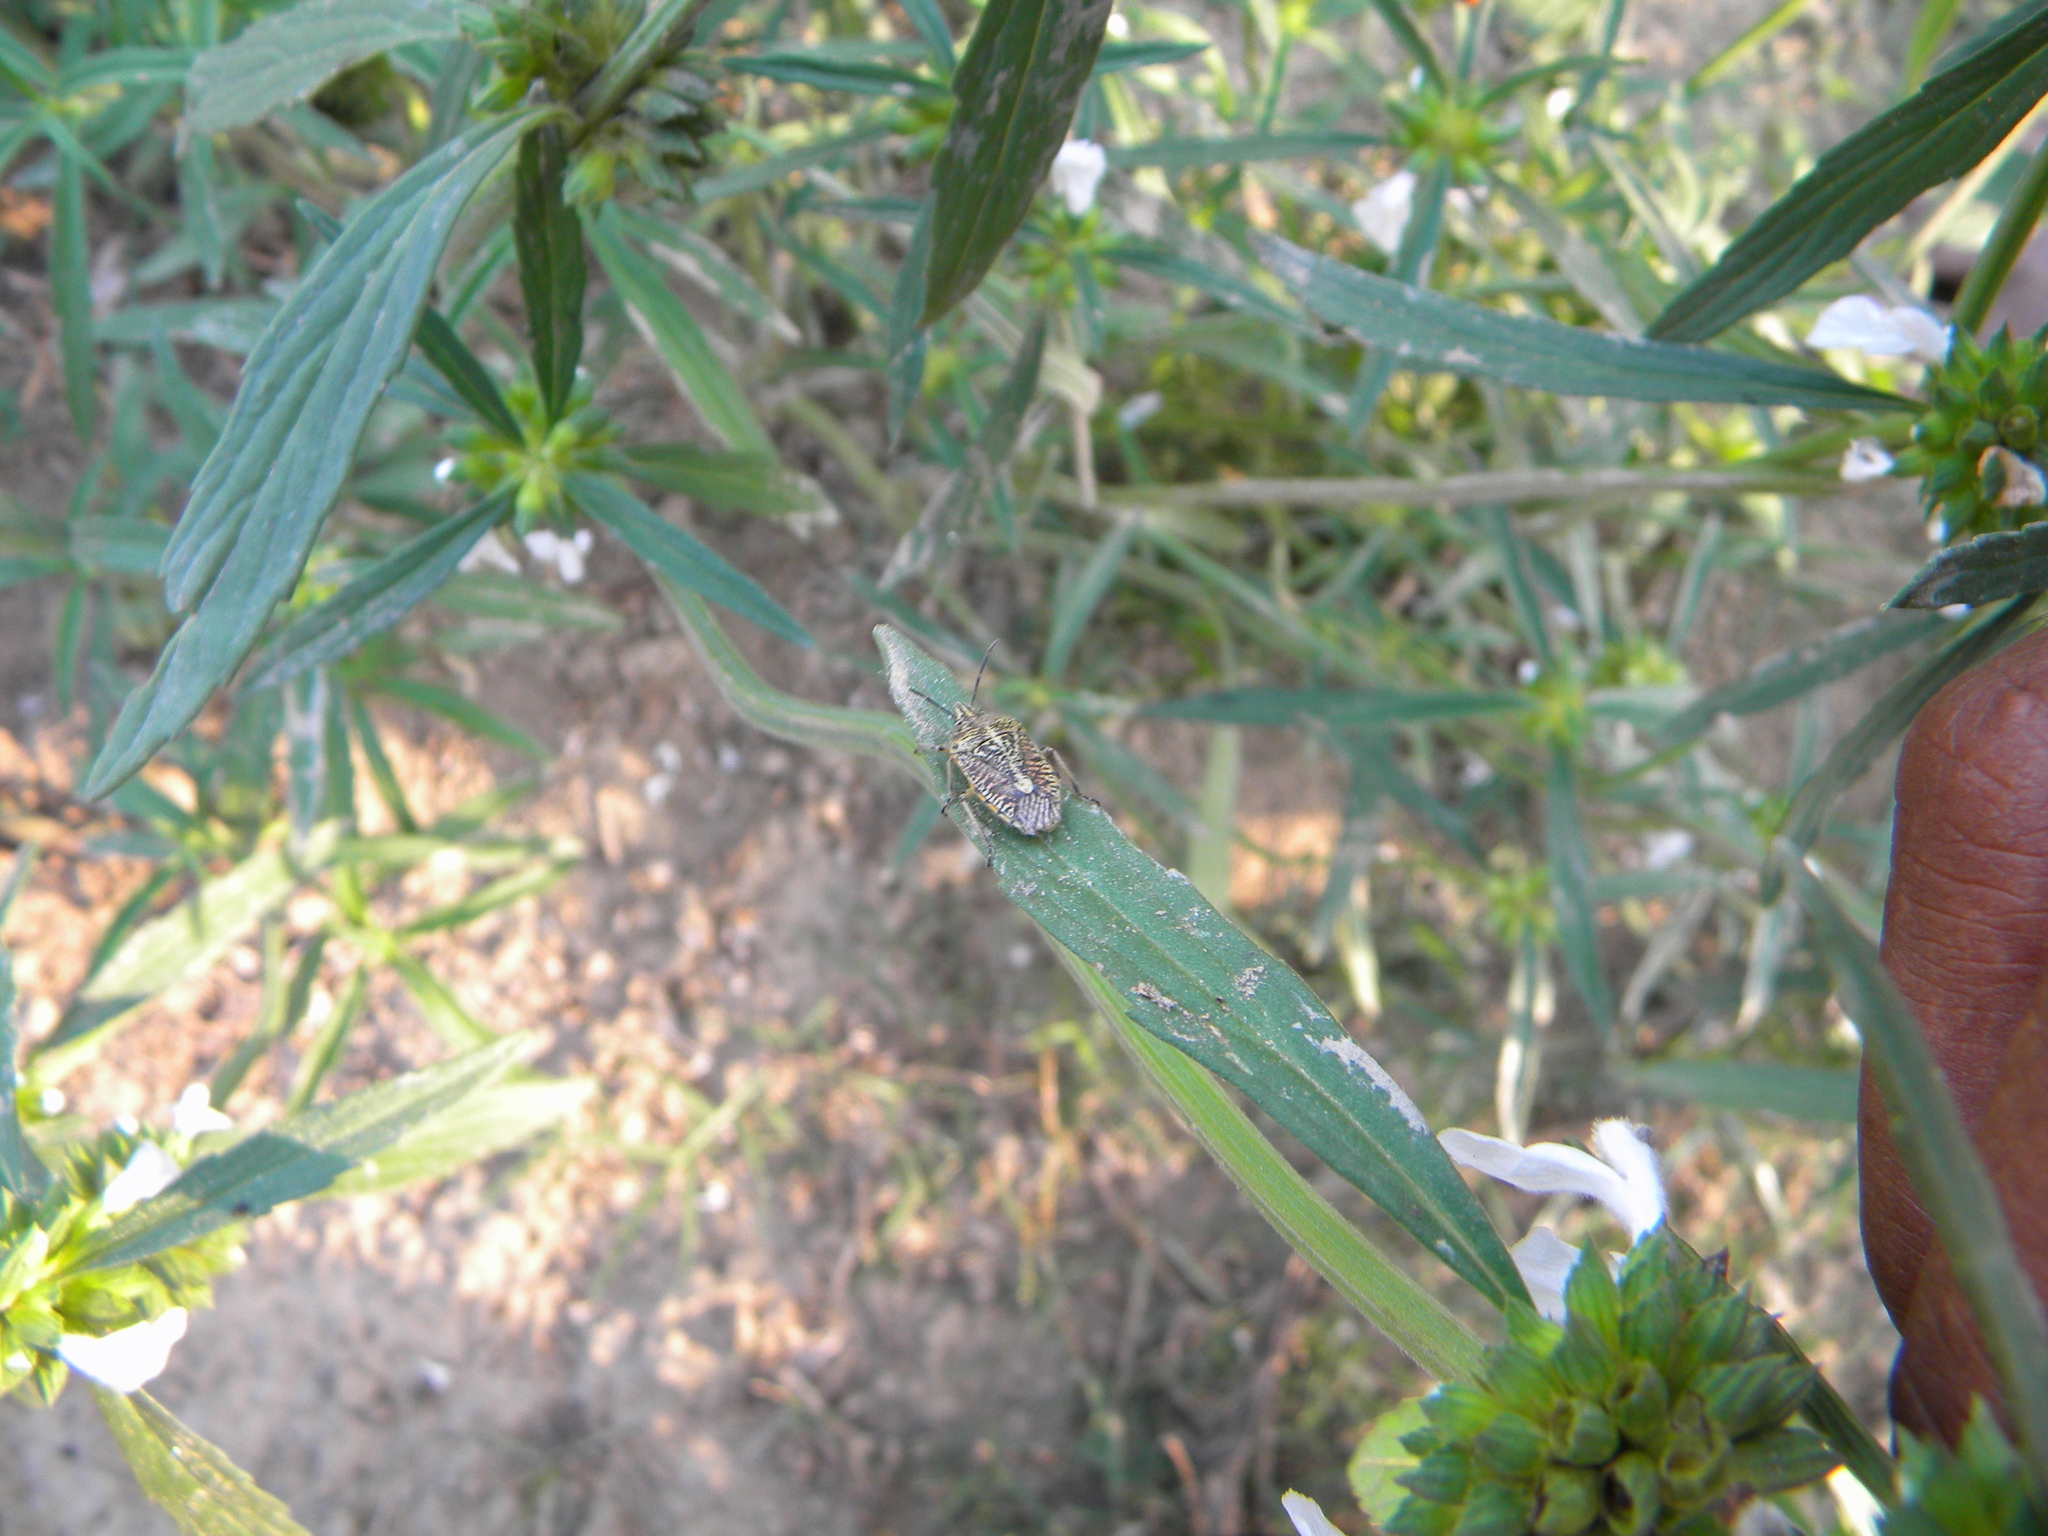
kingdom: Animalia
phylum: Arthropoda
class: Insecta
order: Hemiptera
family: Pentatomidae
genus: Strachia
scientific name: Strachia
